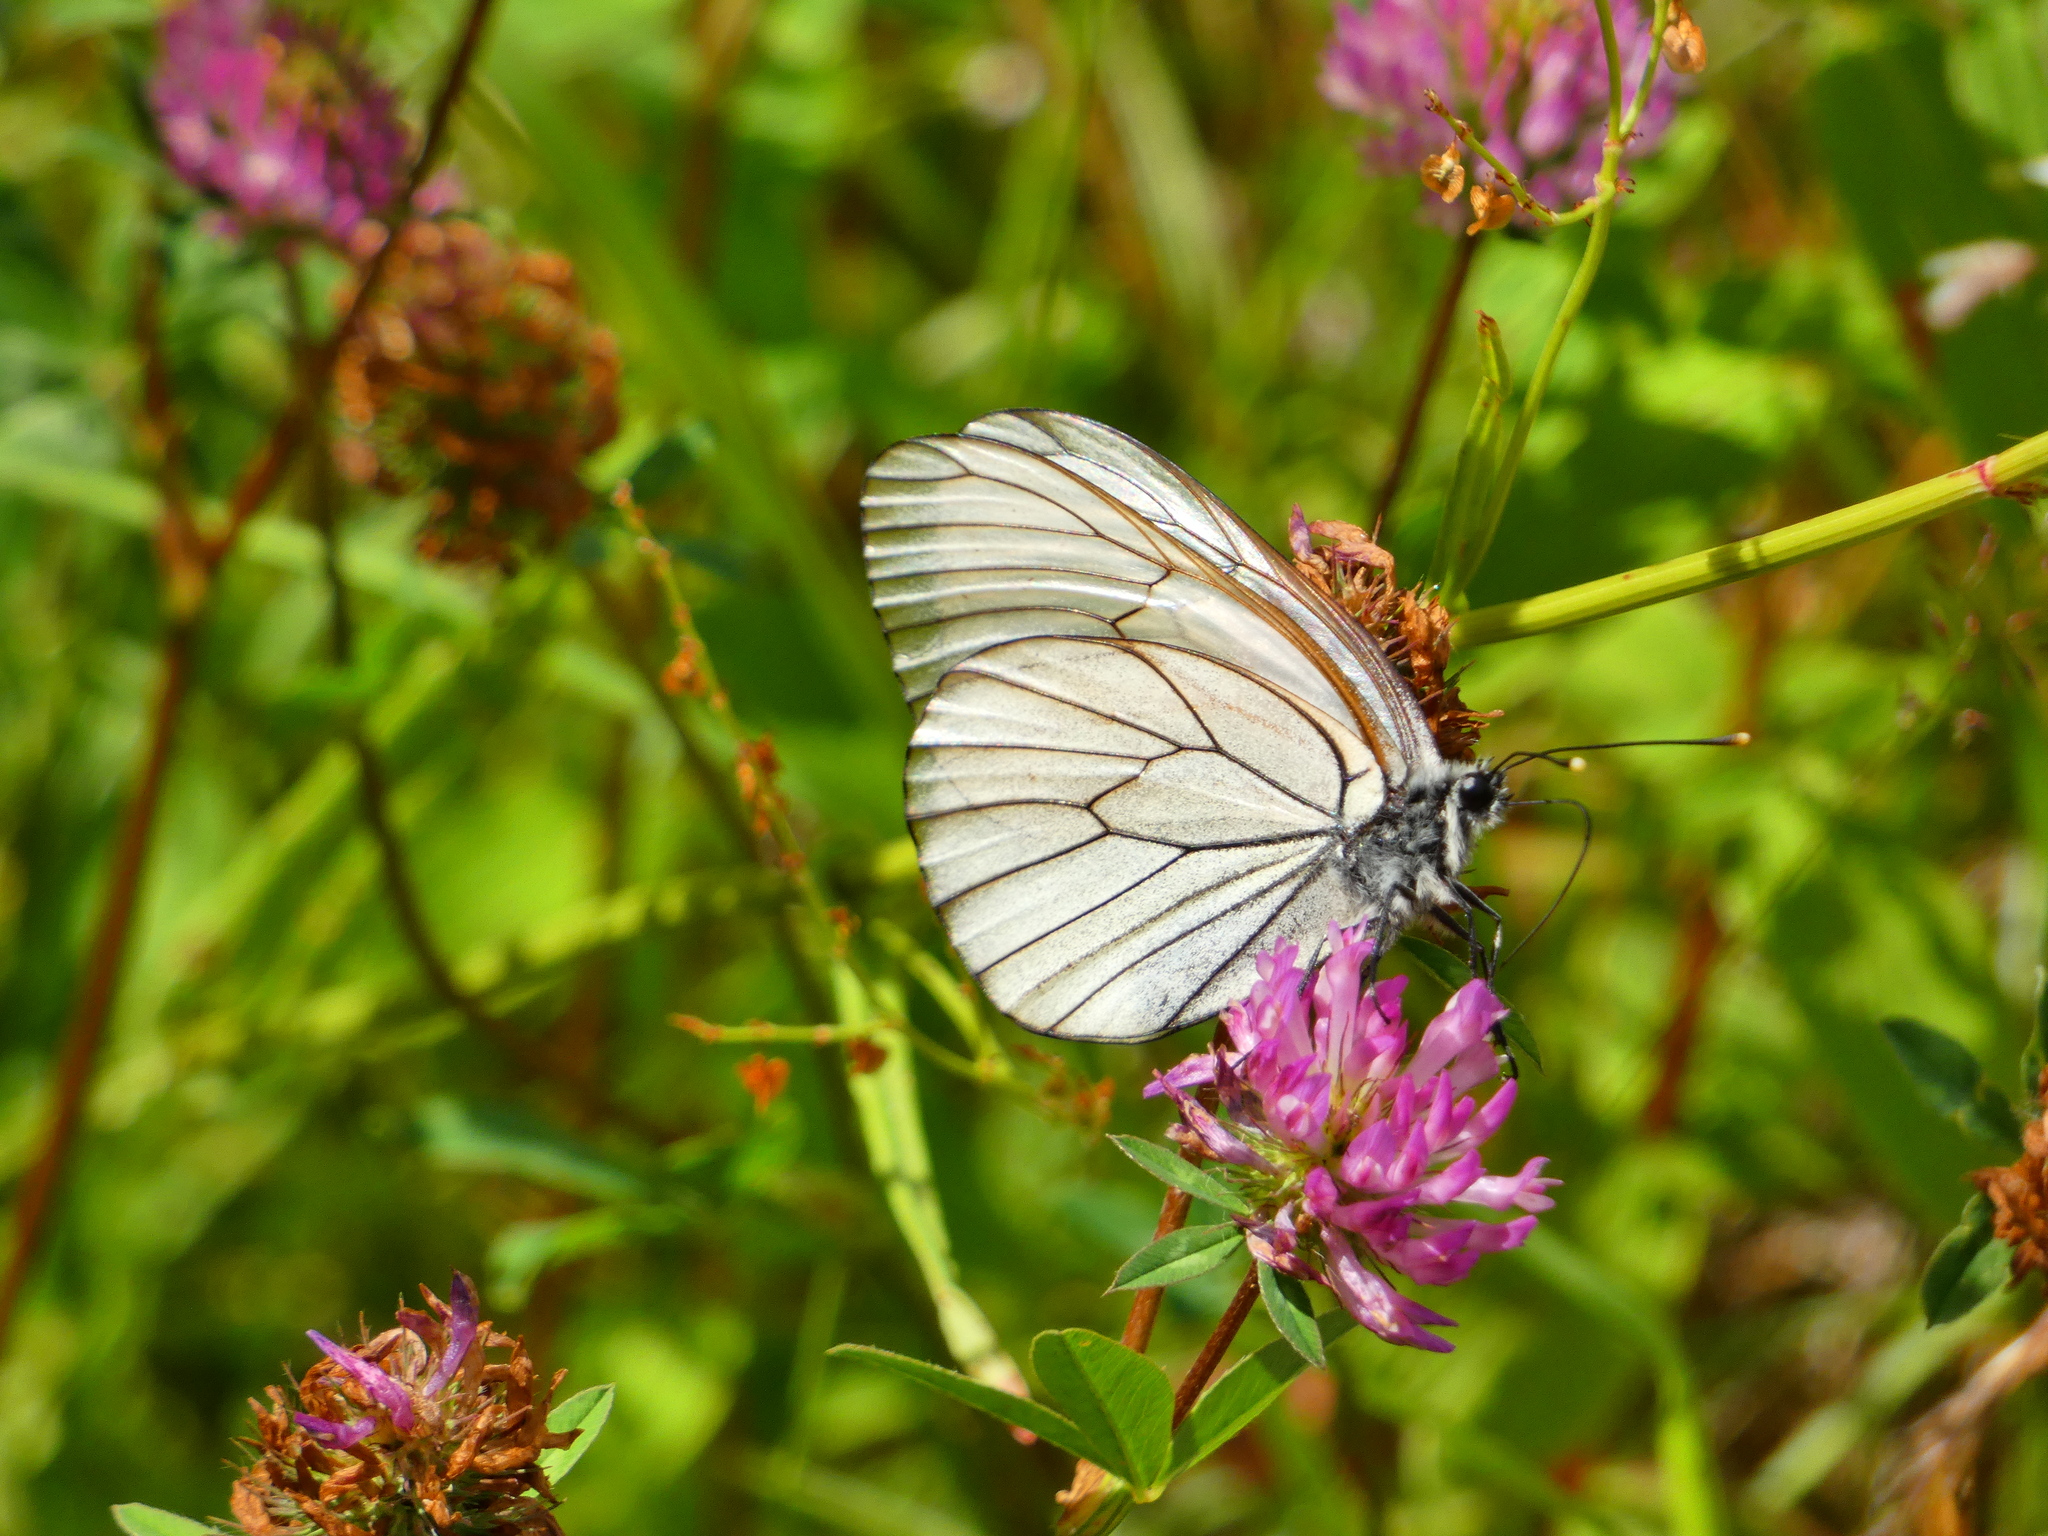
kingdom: Animalia
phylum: Arthropoda
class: Insecta
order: Lepidoptera
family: Pieridae
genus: Aporia
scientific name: Aporia crataegi
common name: Black-veined white
